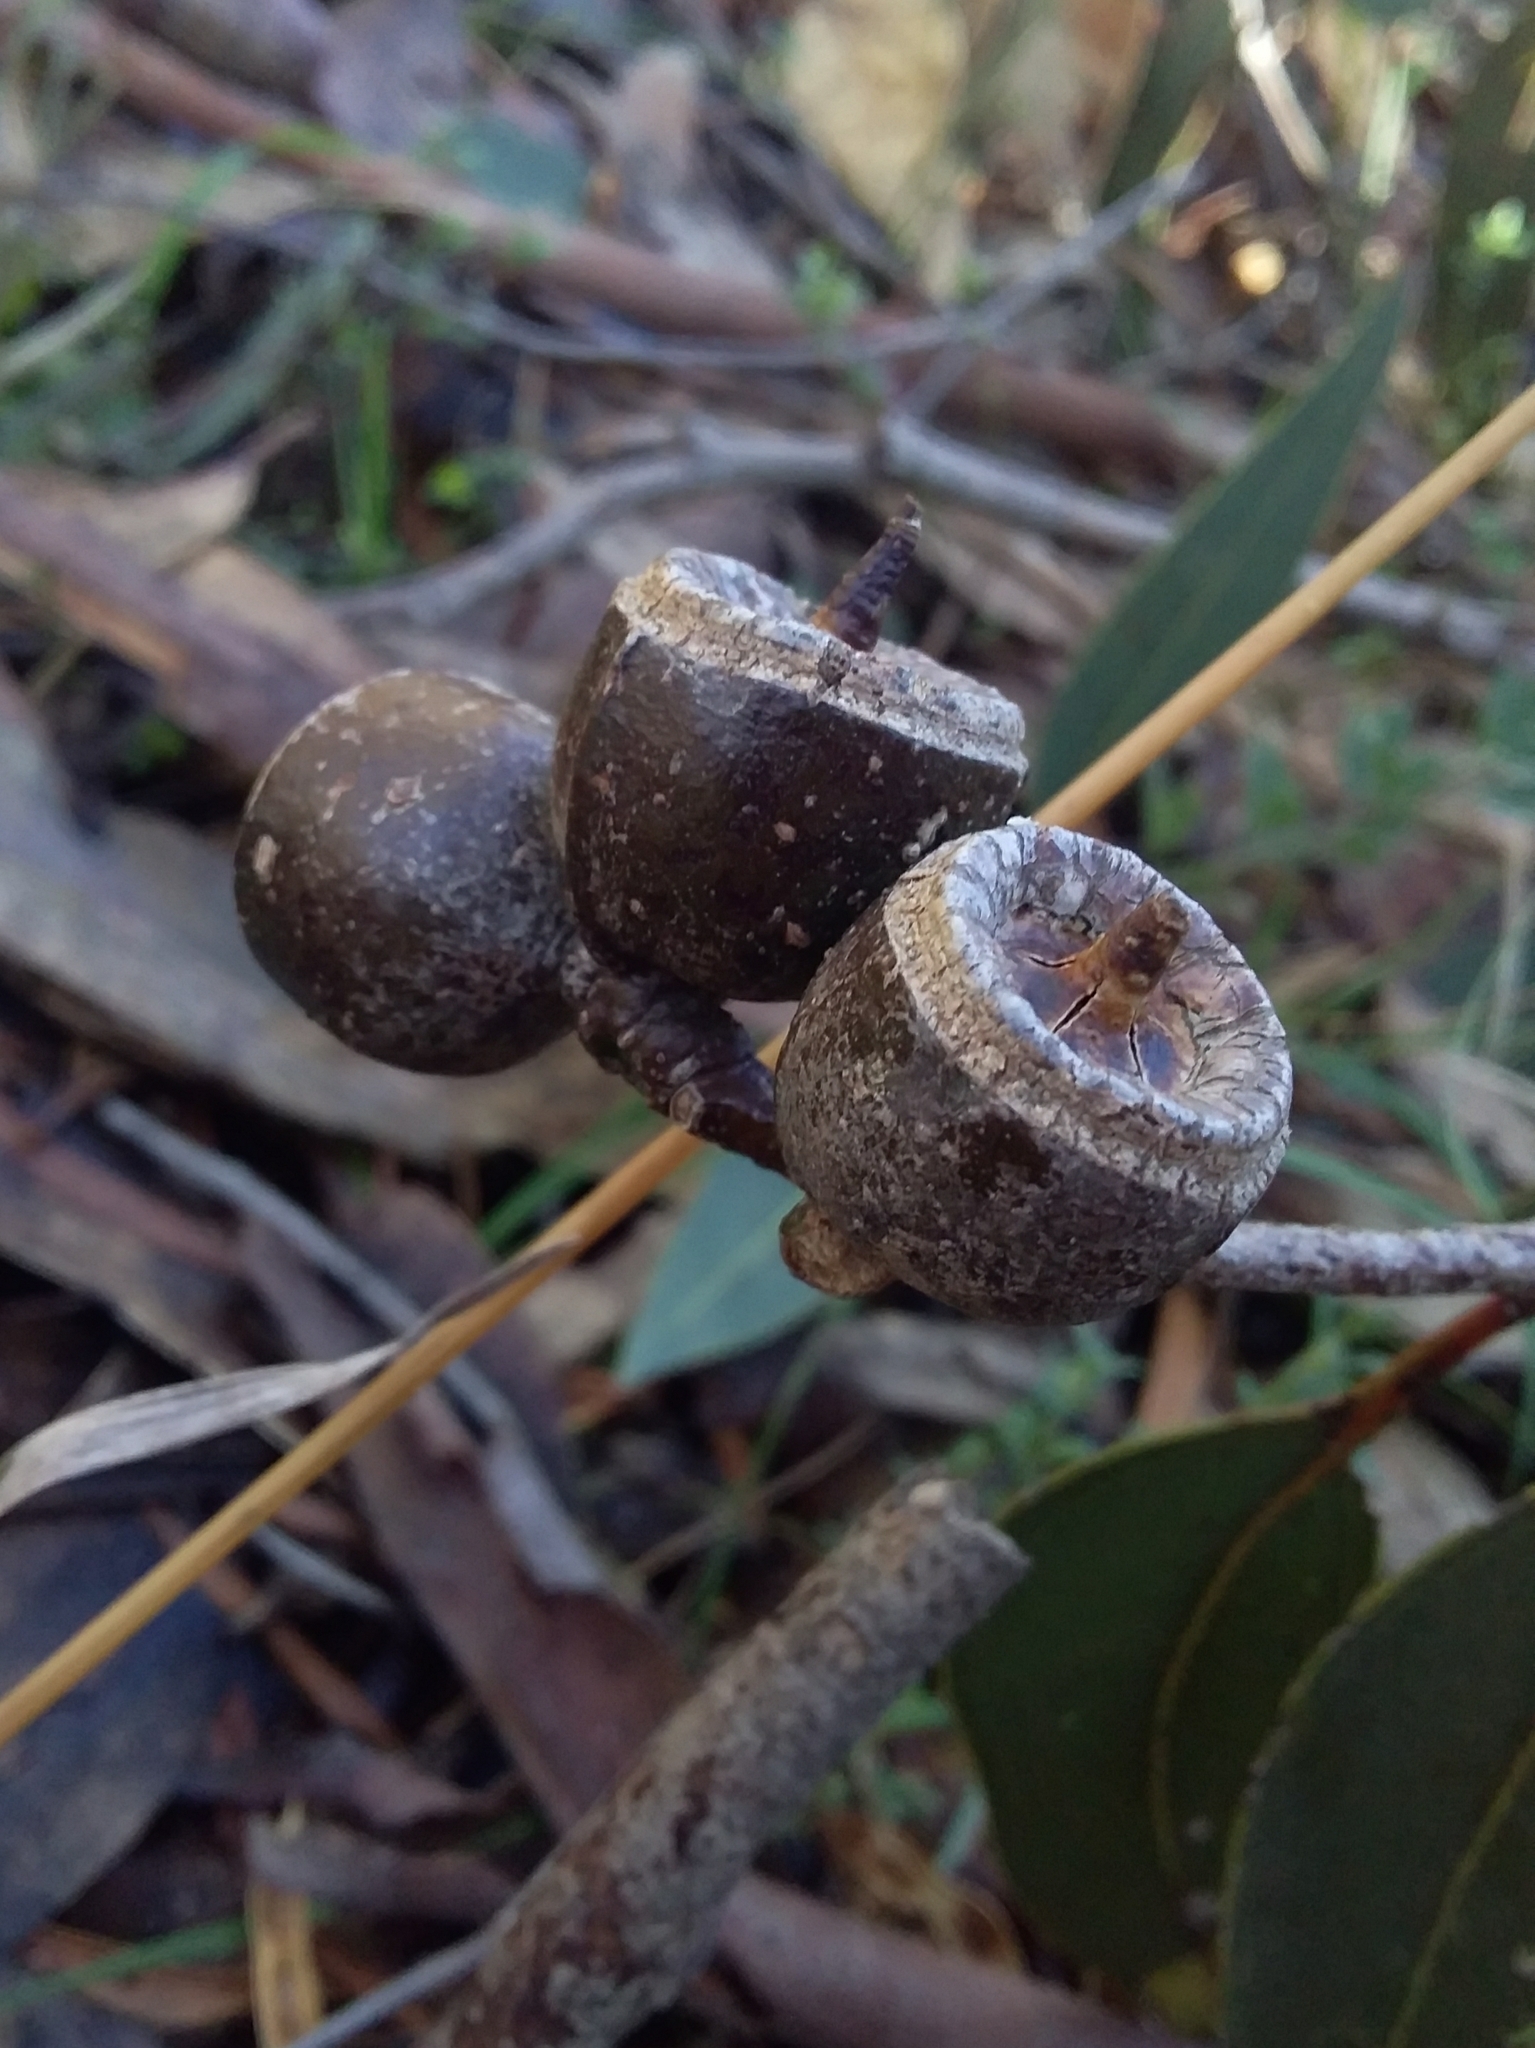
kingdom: Plantae
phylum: Tracheophyta
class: Magnoliopsida
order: Myrtales
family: Myrtaceae
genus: Eucalyptus
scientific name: Eucalyptus cosmophylla
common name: Bog-gum
